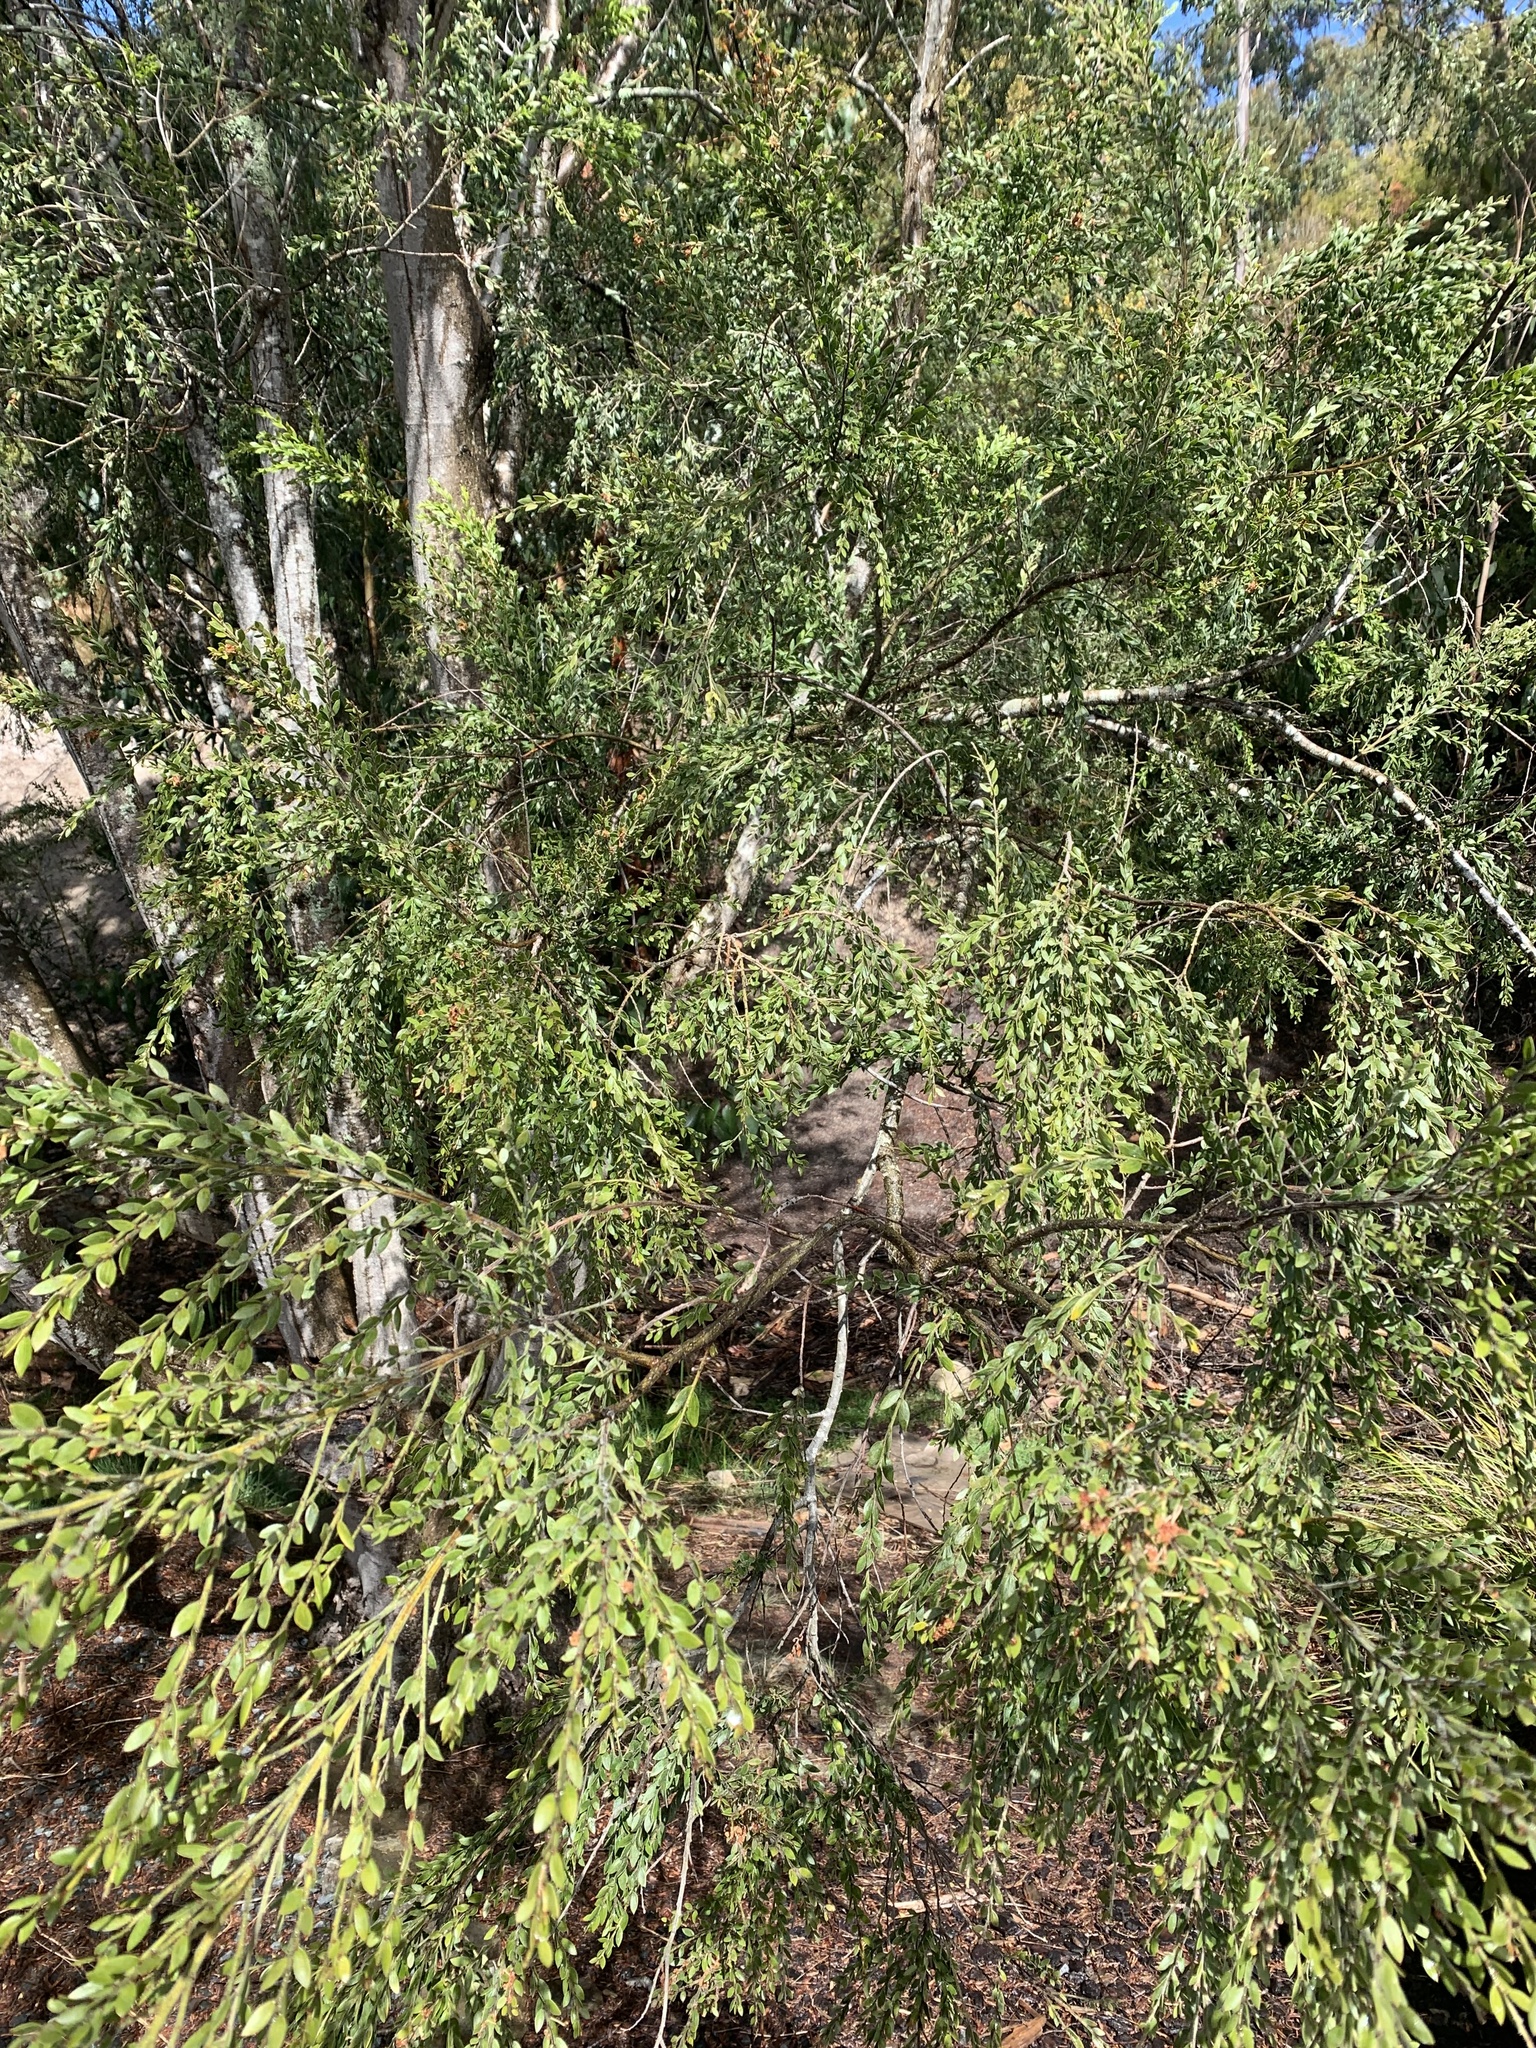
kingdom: Plantae
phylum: Tracheophyta
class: Magnoliopsida
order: Fabales
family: Fabaceae
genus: Acacia
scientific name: Acacia howittii
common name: Sticky wattle
